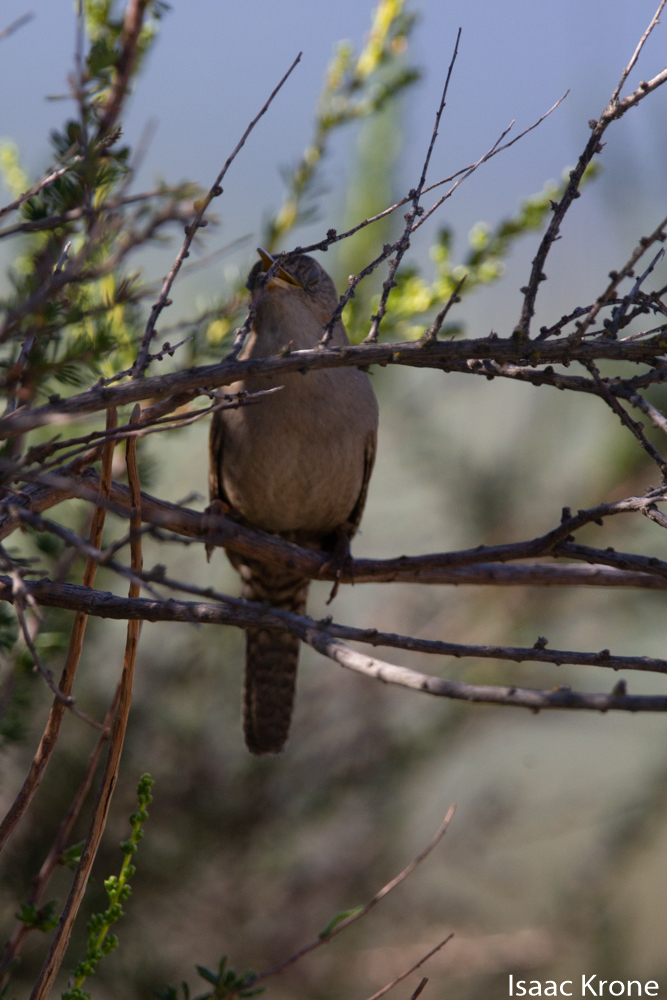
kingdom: Animalia
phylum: Chordata
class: Aves
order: Passeriformes
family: Troglodytidae
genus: Troglodytes
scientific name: Troglodytes aedon
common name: House wren
